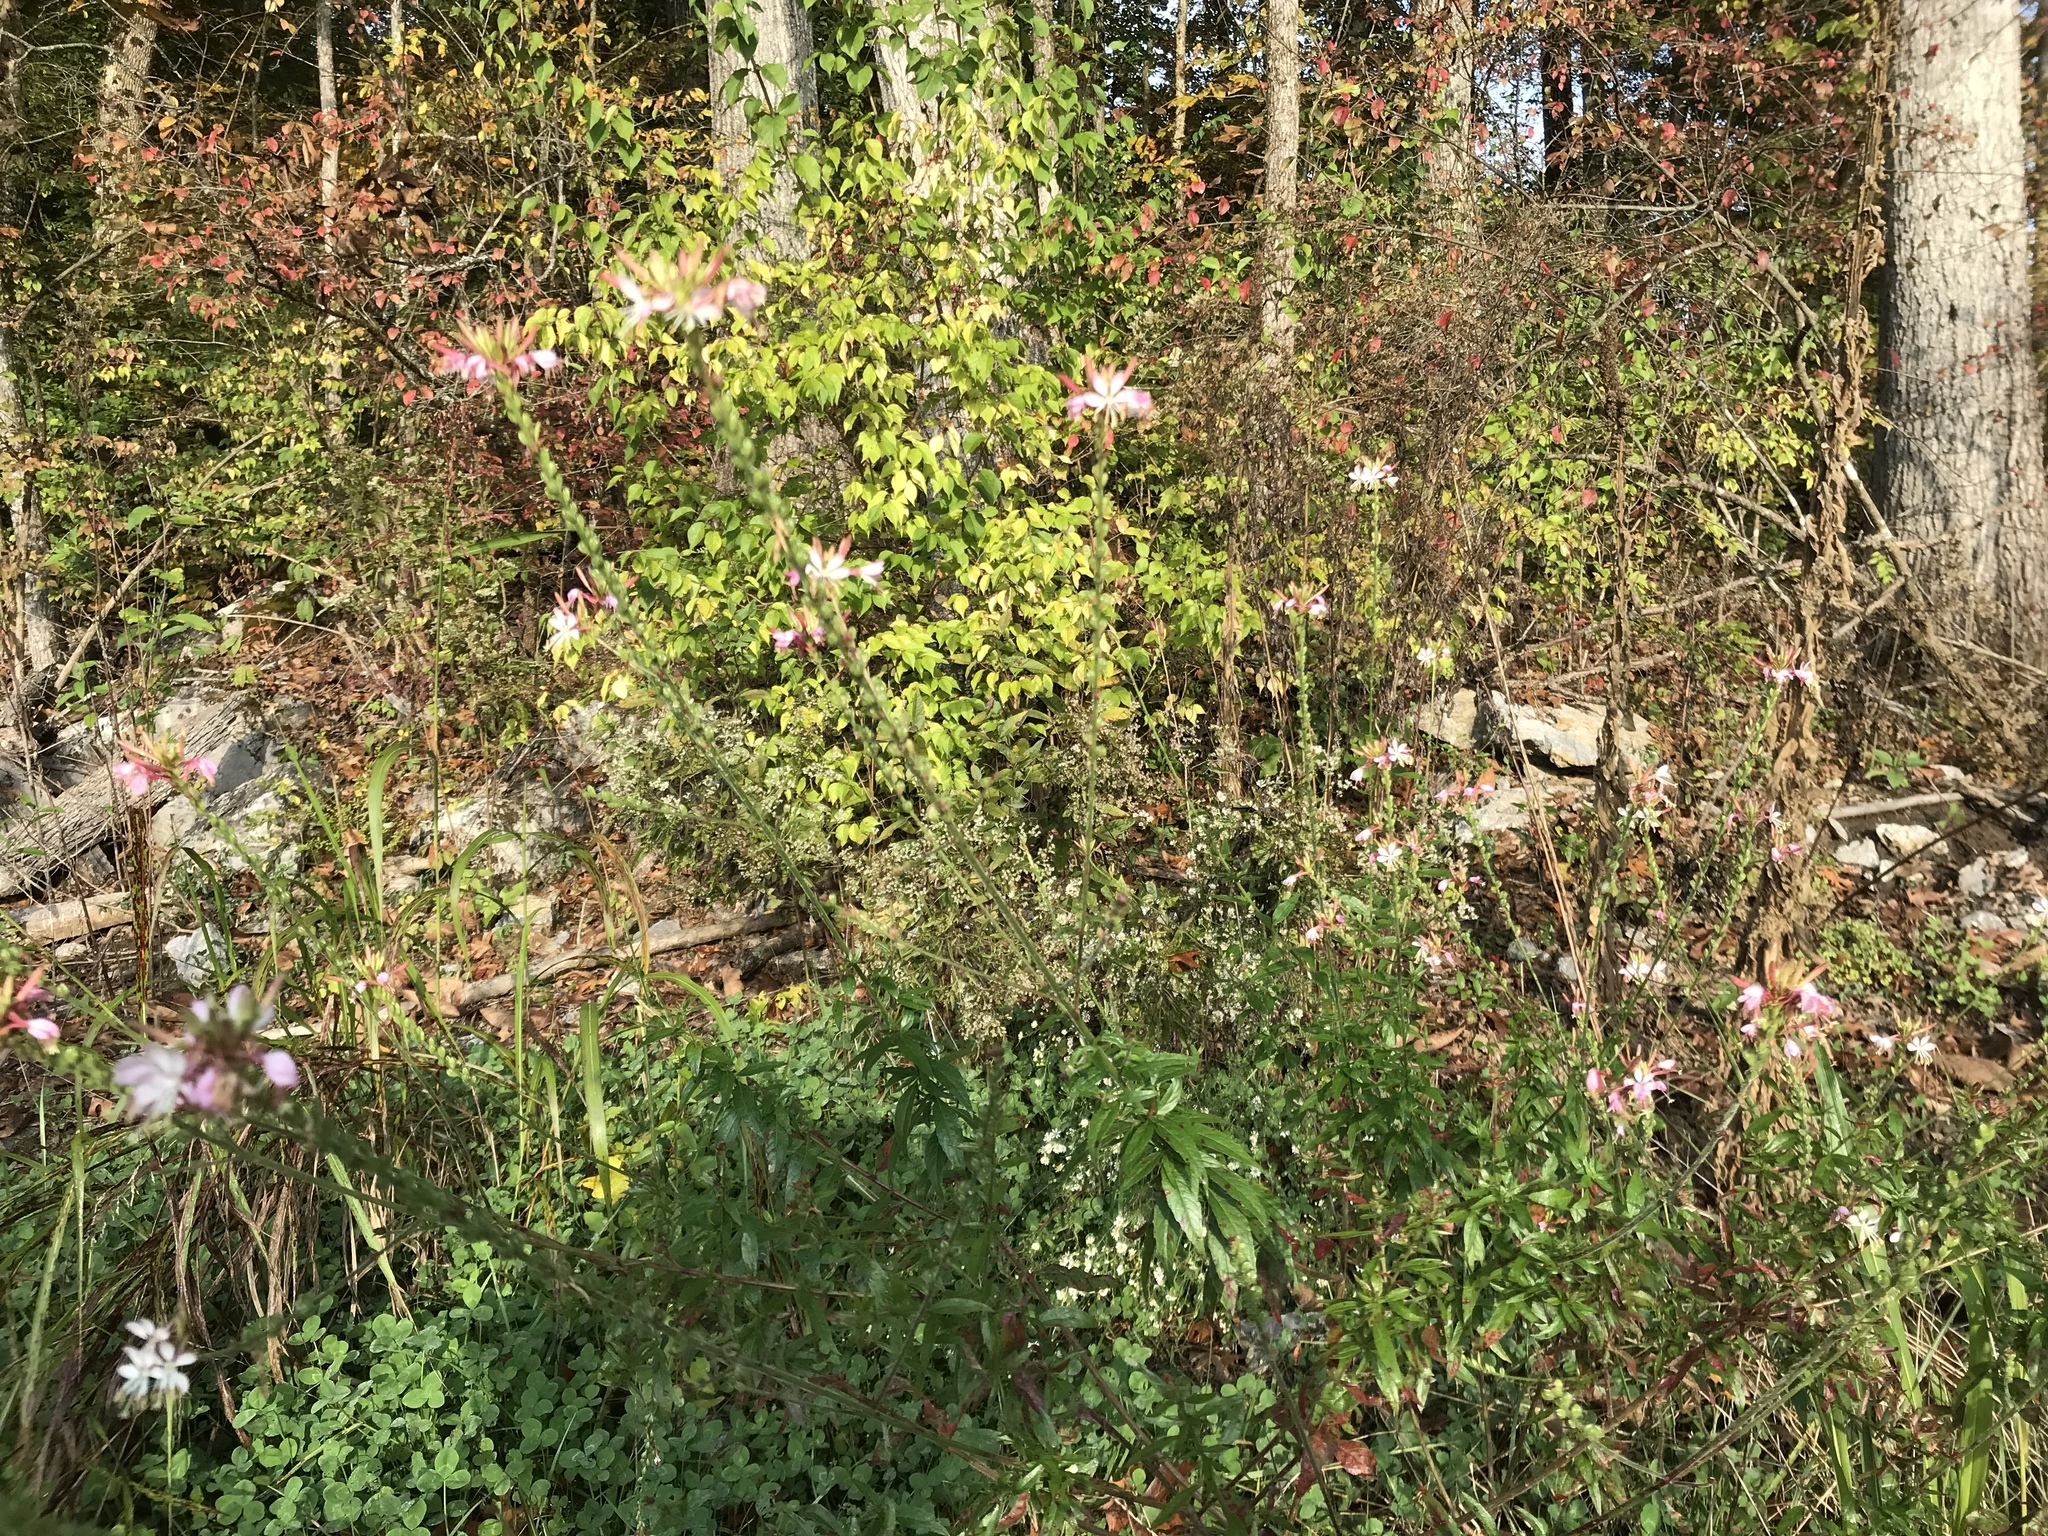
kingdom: Plantae
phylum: Tracheophyta
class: Magnoliopsida
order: Myrtales
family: Onagraceae
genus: Oenothera
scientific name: Oenothera gaura
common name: Biennial beeblossom
